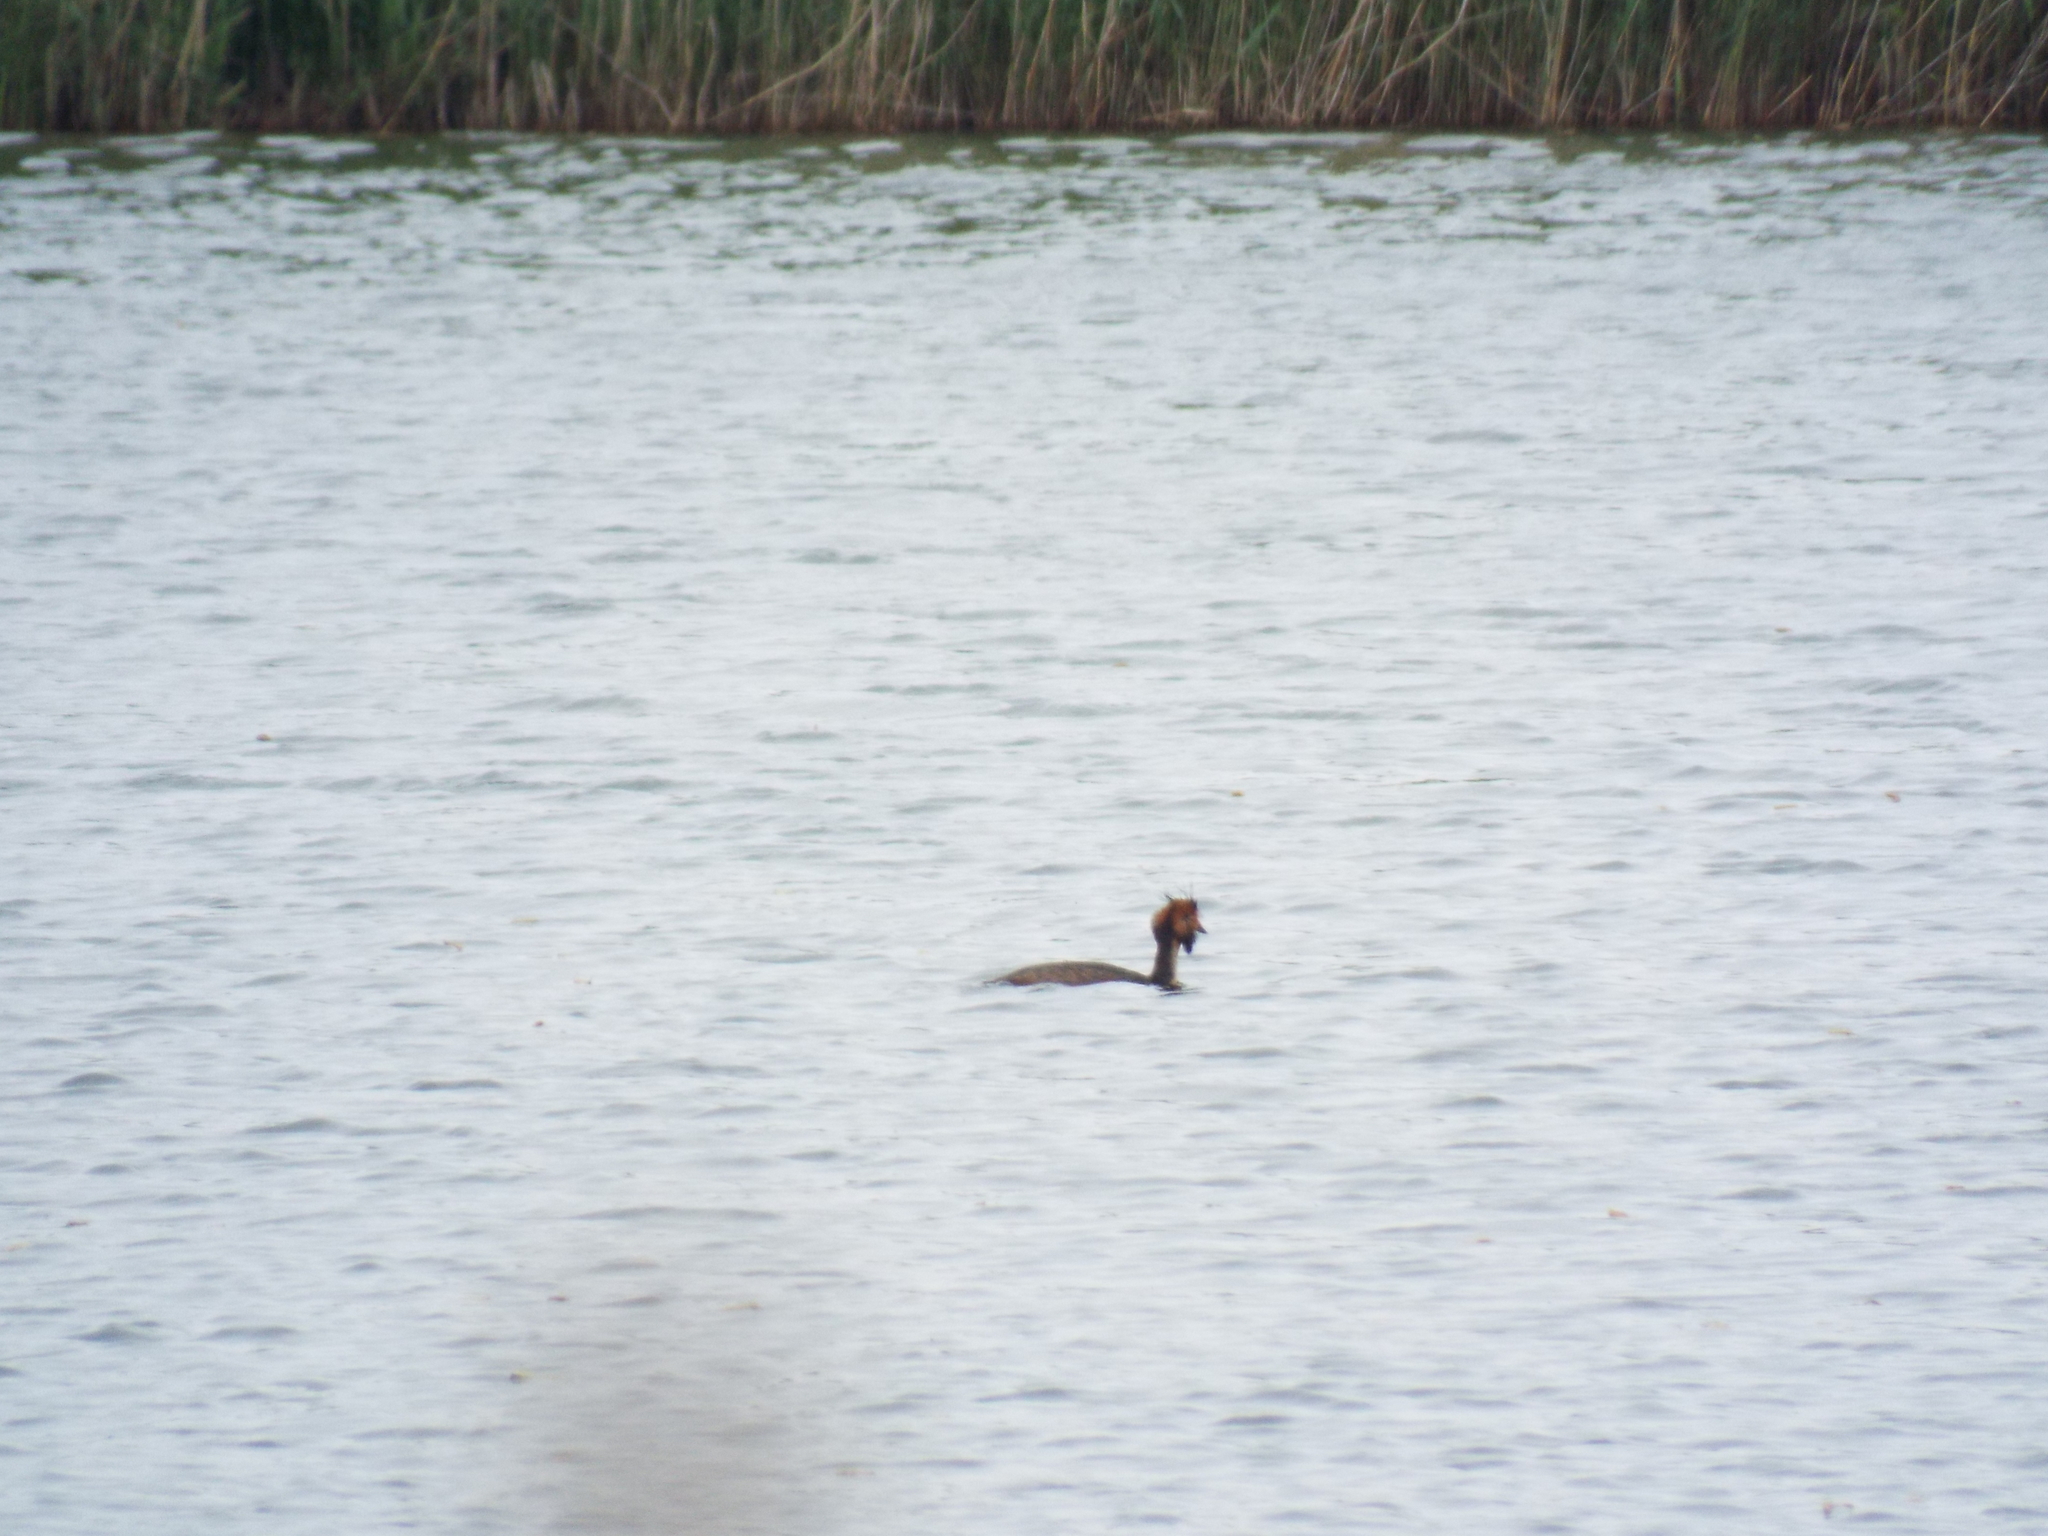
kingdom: Animalia
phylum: Chordata
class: Aves
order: Podicipediformes
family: Podicipedidae
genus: Podiceps
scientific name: Podiceps cristatus
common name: Great crested grebe
